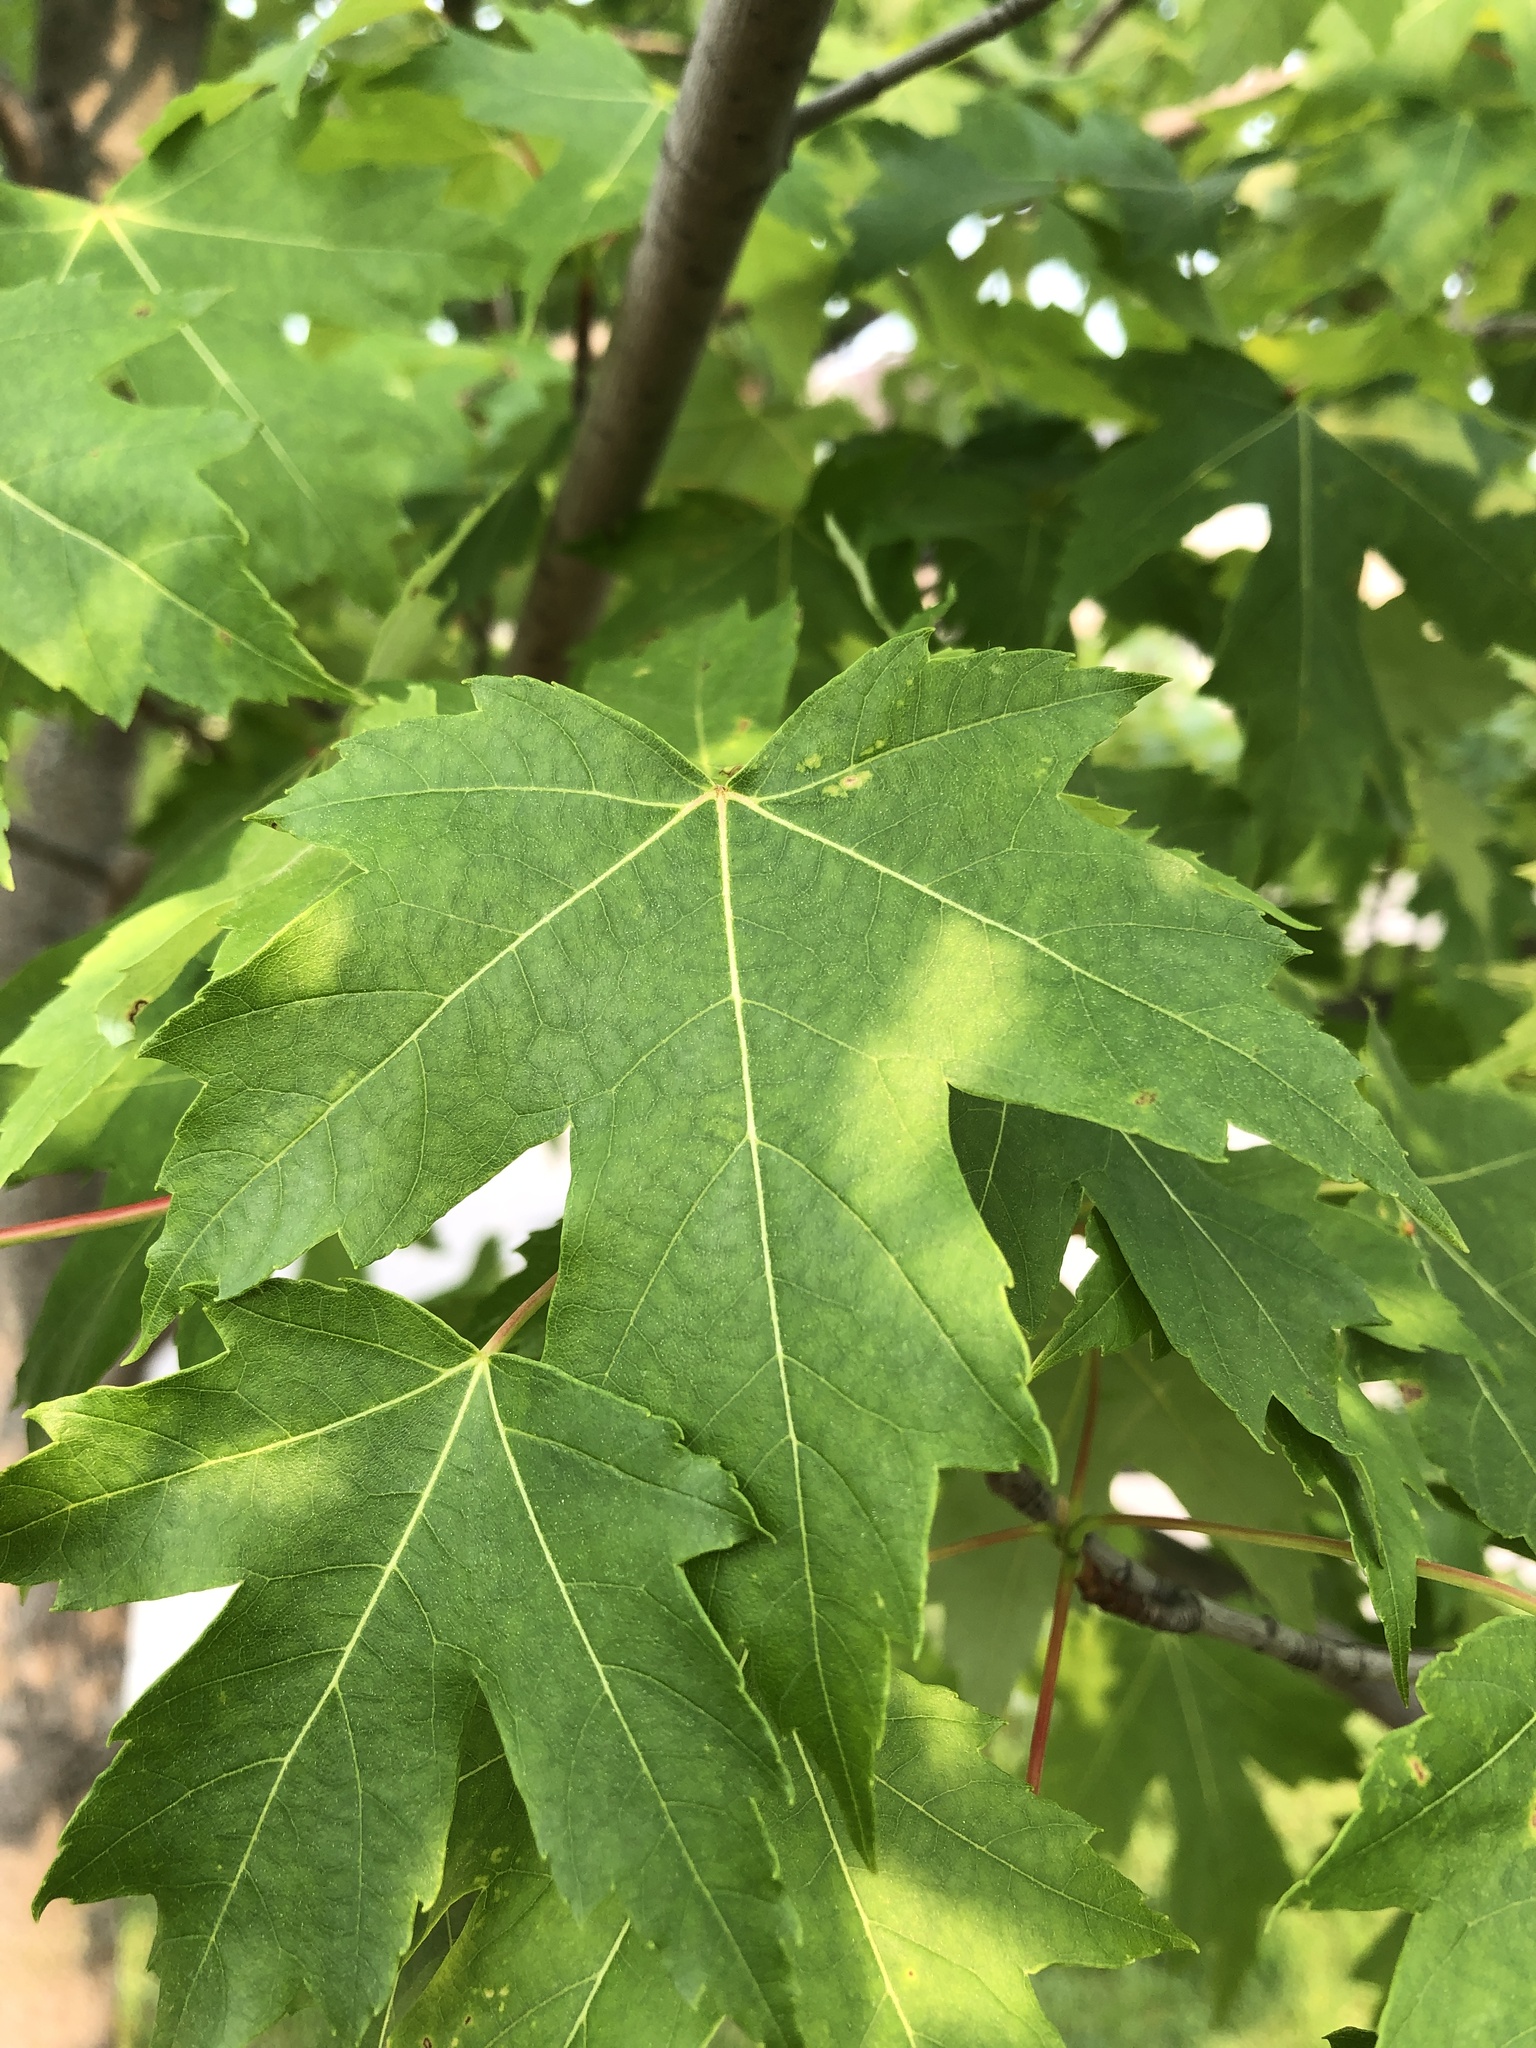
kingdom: Plantae
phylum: Tracheophyta
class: Magnoliopsida
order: Sapindales
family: Sapindaceae
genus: Acer
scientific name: Acer freemanii
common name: Freeman maple
